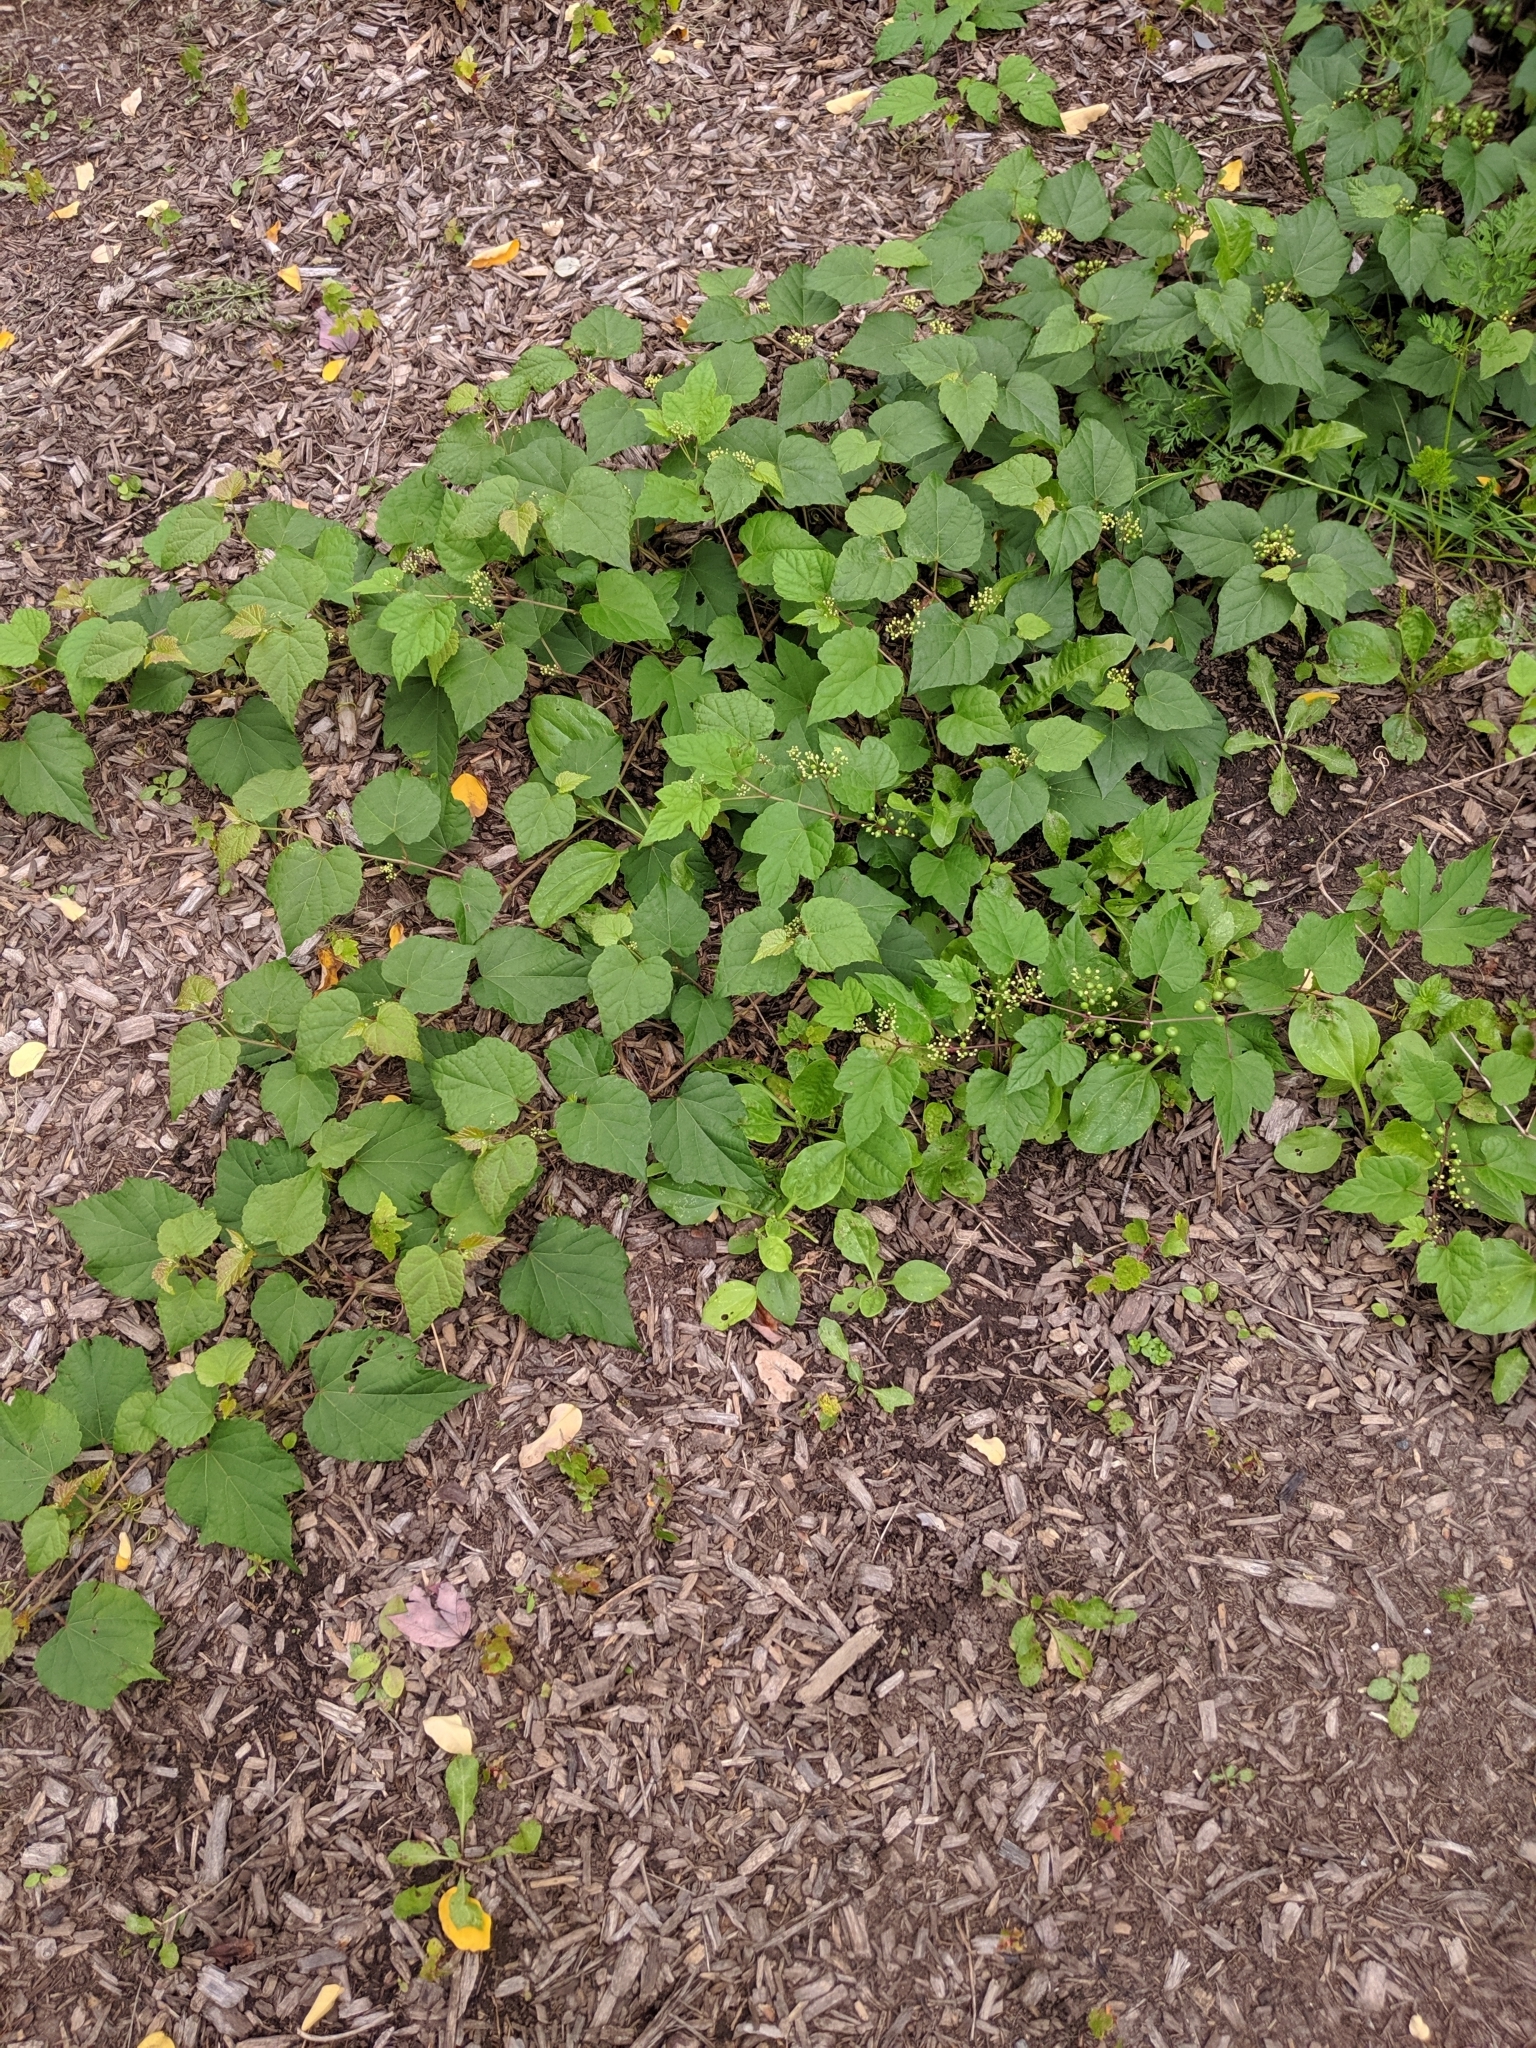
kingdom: Plantae
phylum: Tracheophyta
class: Magnoliopsida
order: Vitales
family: Vitaceae
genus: Ampelopsis
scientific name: Ampelopsis glandulosa
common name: Amur peppervine
